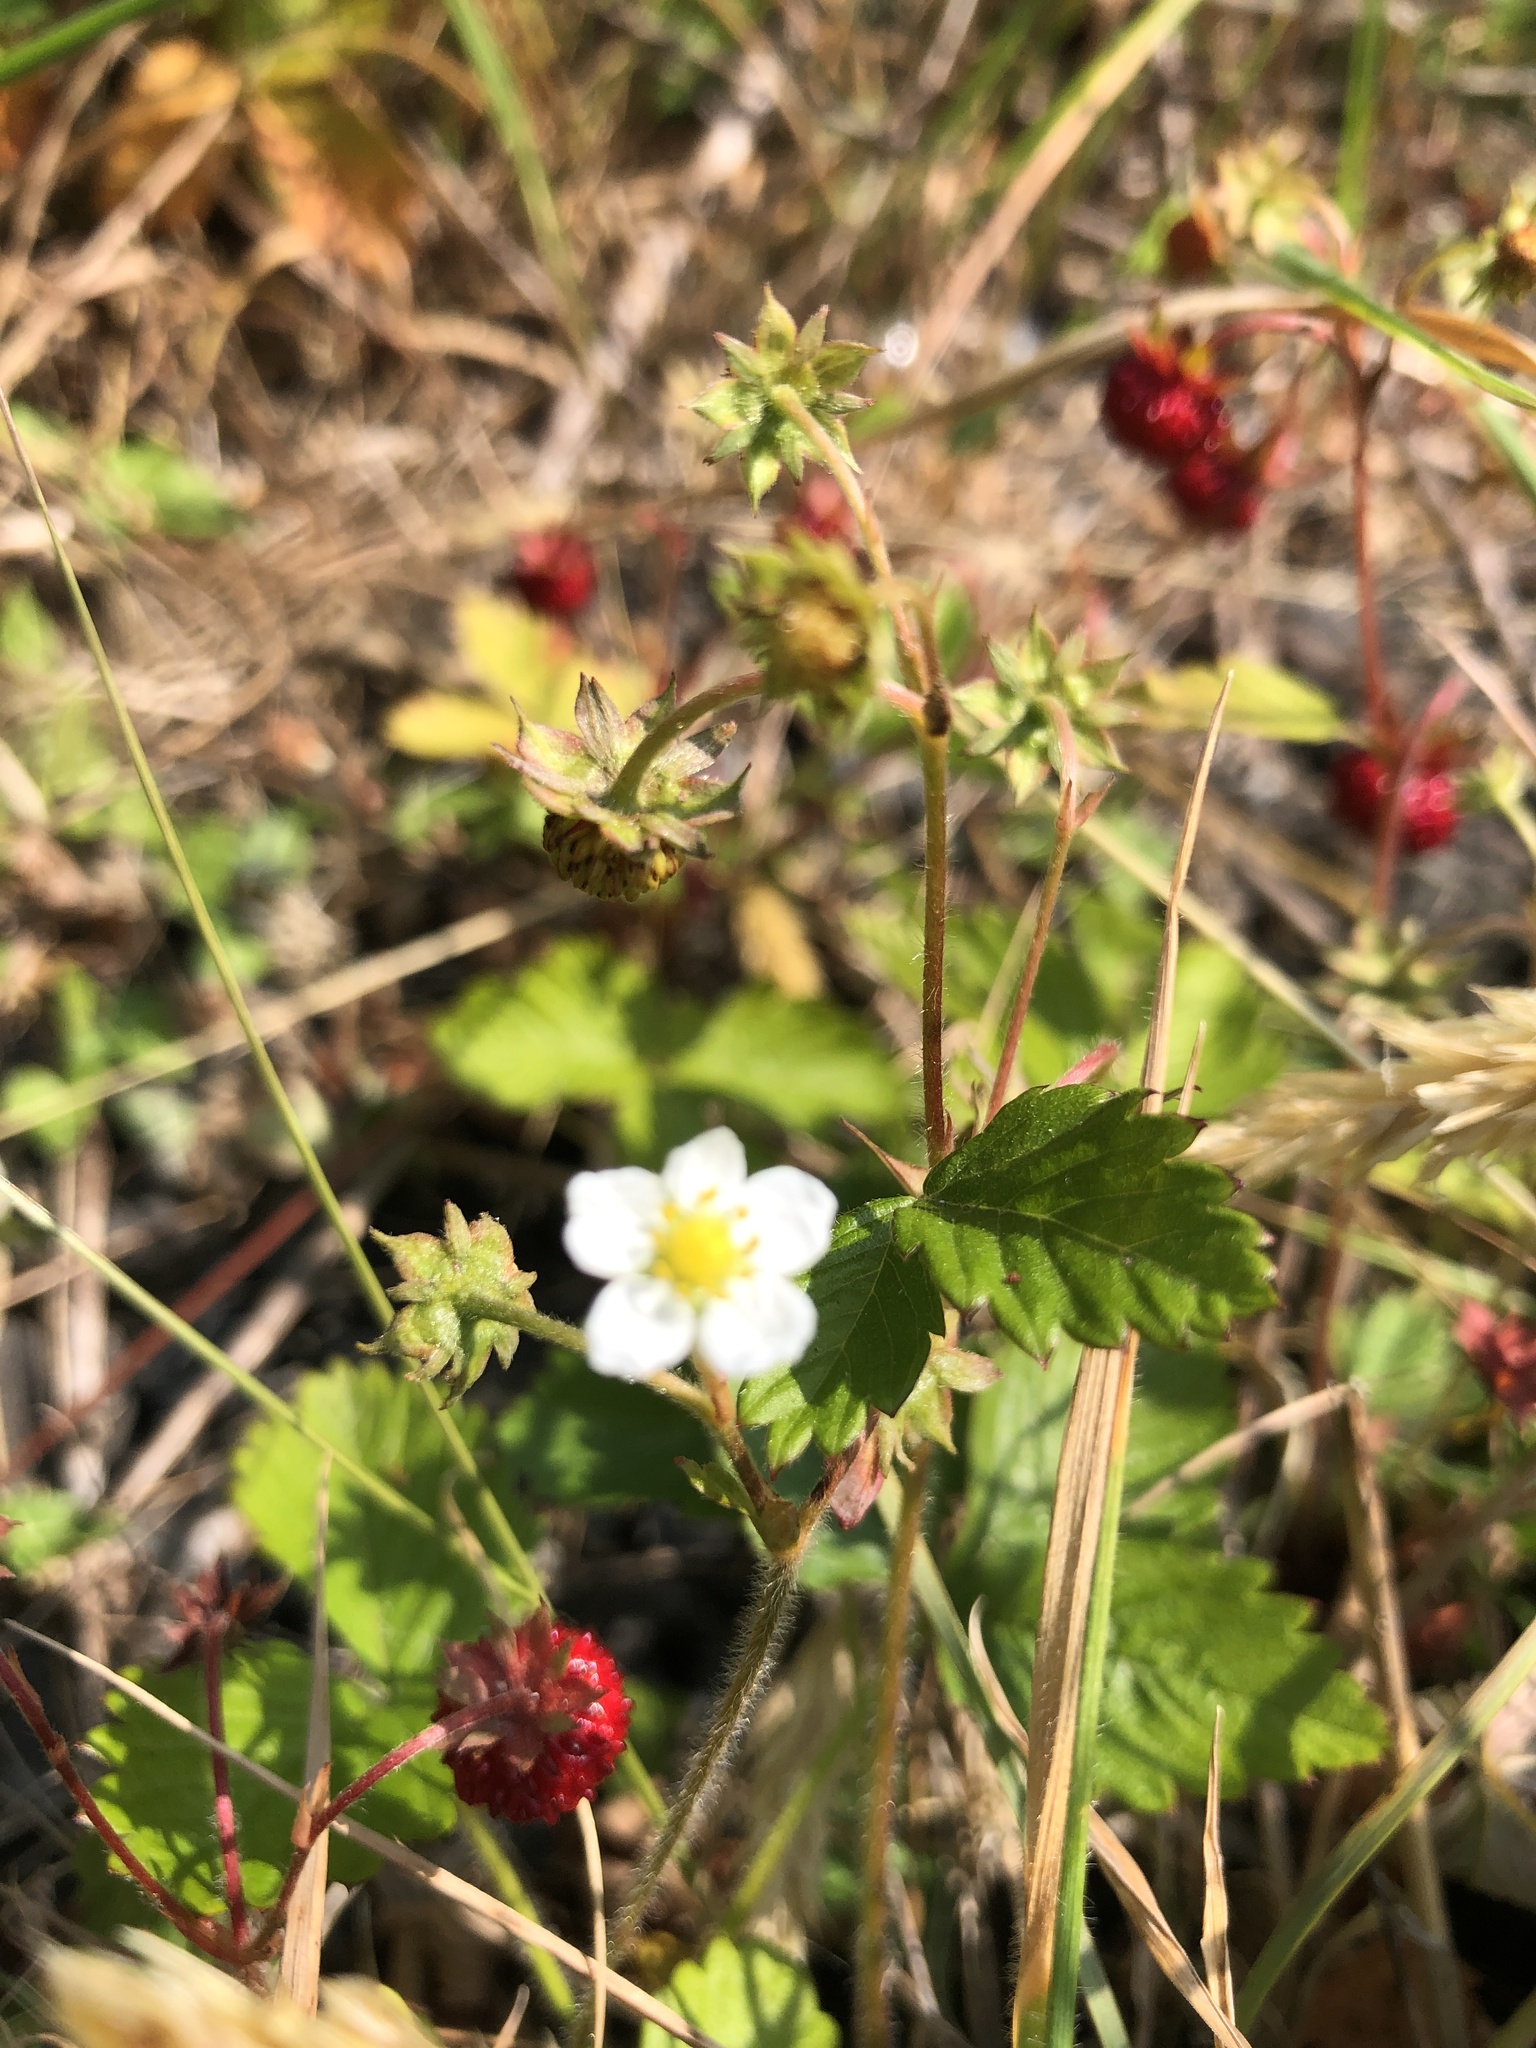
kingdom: Plantae
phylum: Tracheophyta
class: Magnoliopsida
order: Rosales
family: Rosaceae
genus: Fragaria
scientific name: Fragaria vesca
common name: Wild strawberry
